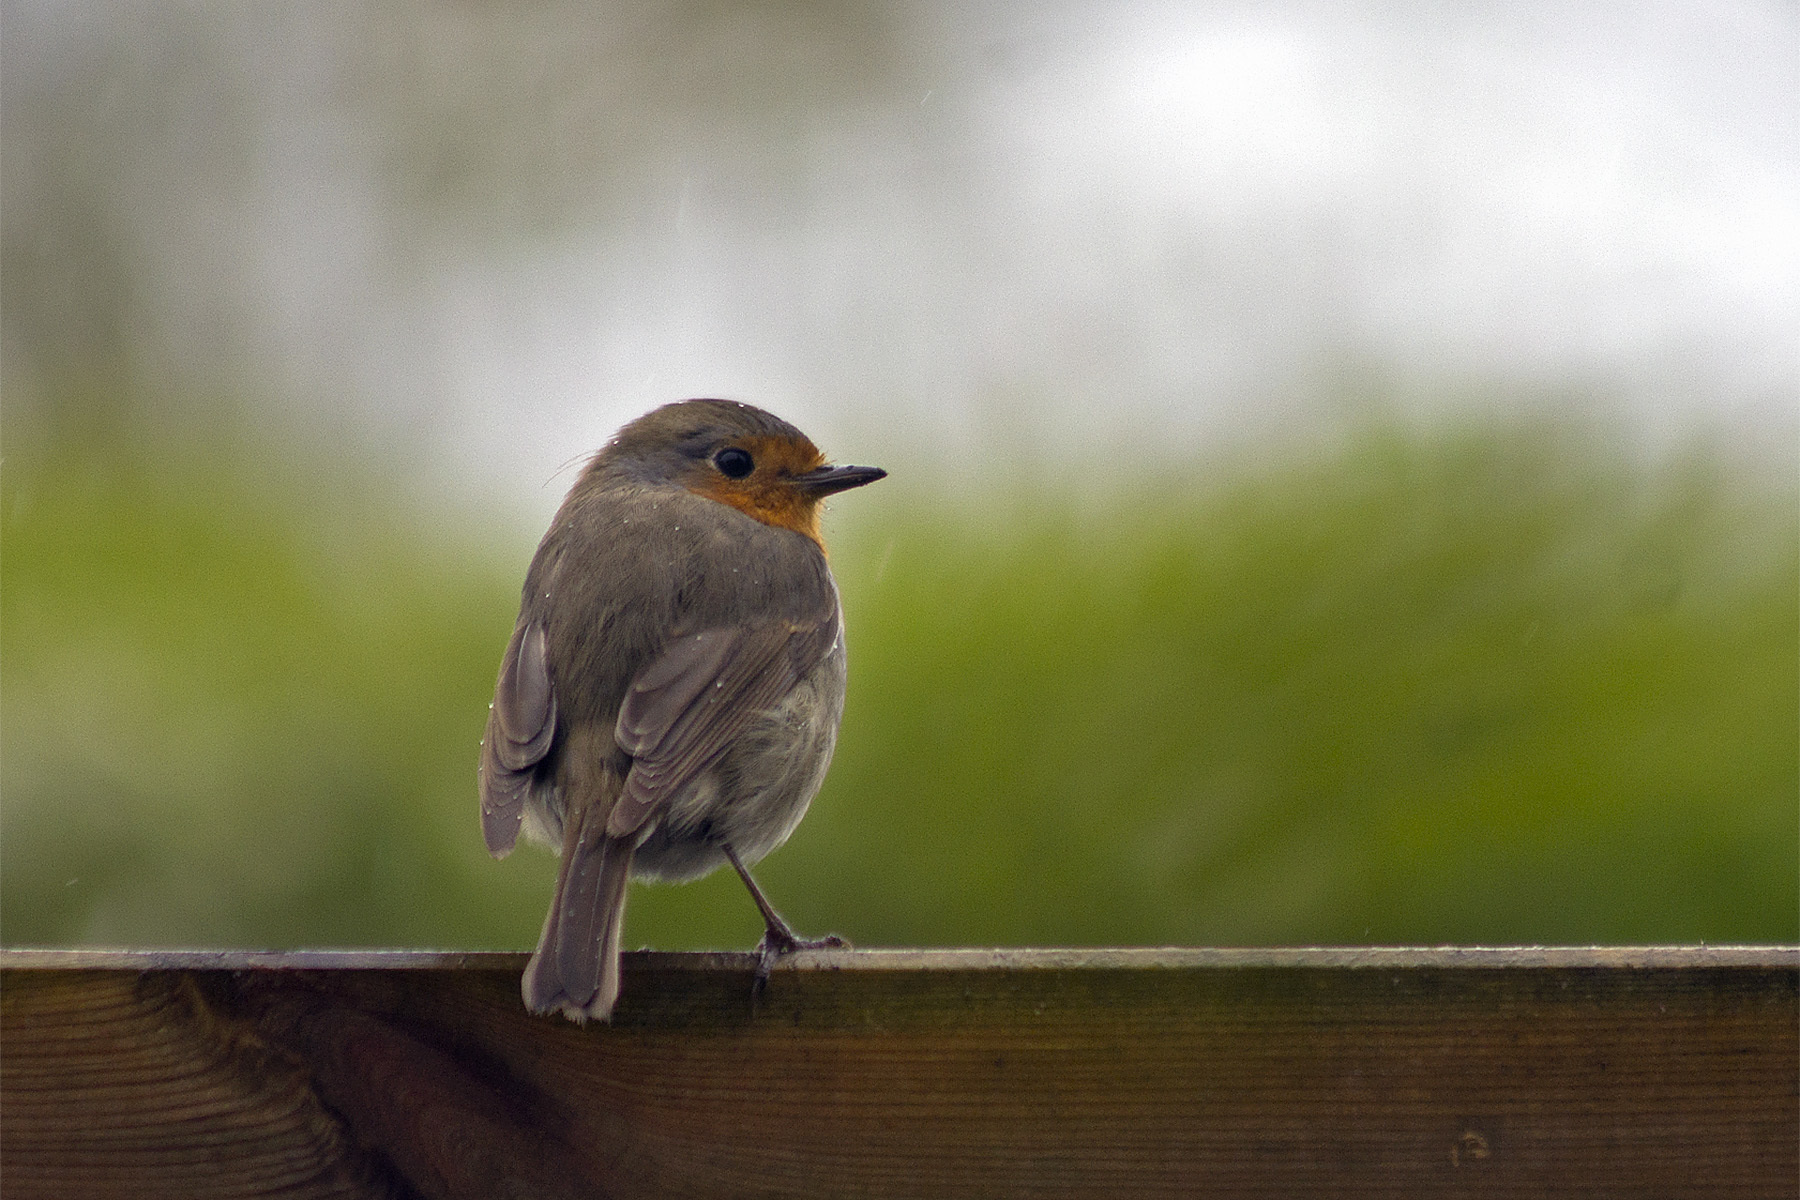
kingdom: Animalia
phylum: Chordata
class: Aves
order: Passeriformes
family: Muscicapidae
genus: Erithacus
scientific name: Erithacus rubecula
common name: European robin
